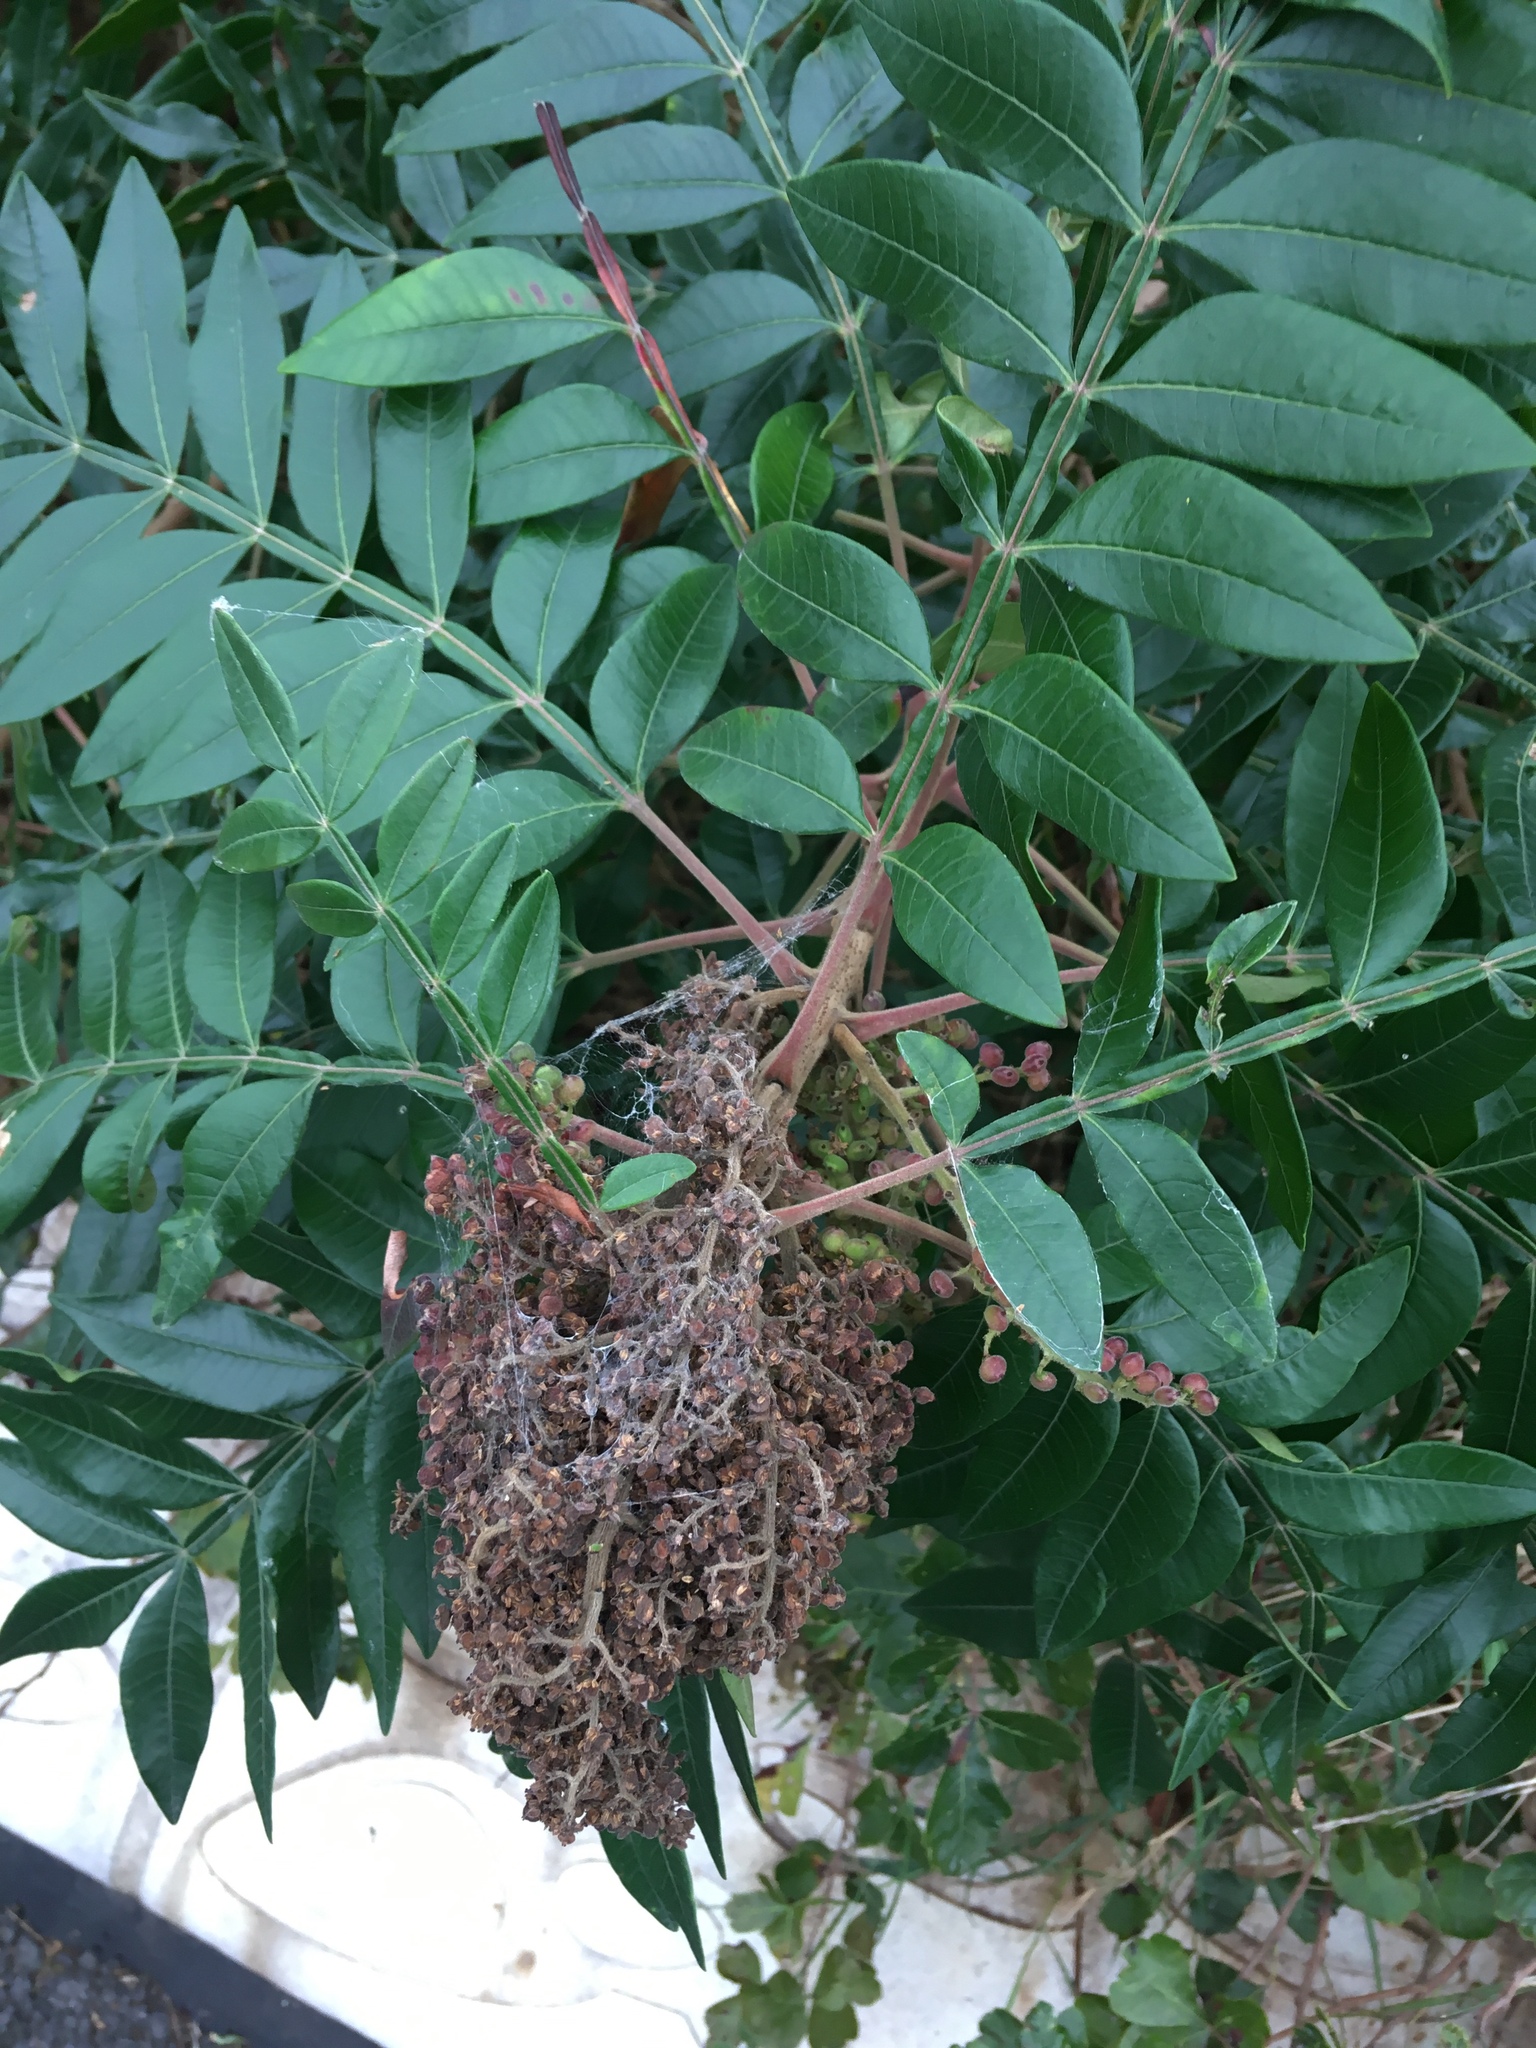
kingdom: Plantae
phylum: Tracheophyta
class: Magnoliopsida
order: Sapindales
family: Anacardiaceae
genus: Rhus
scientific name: Rhus copallina
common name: Shining sumac
